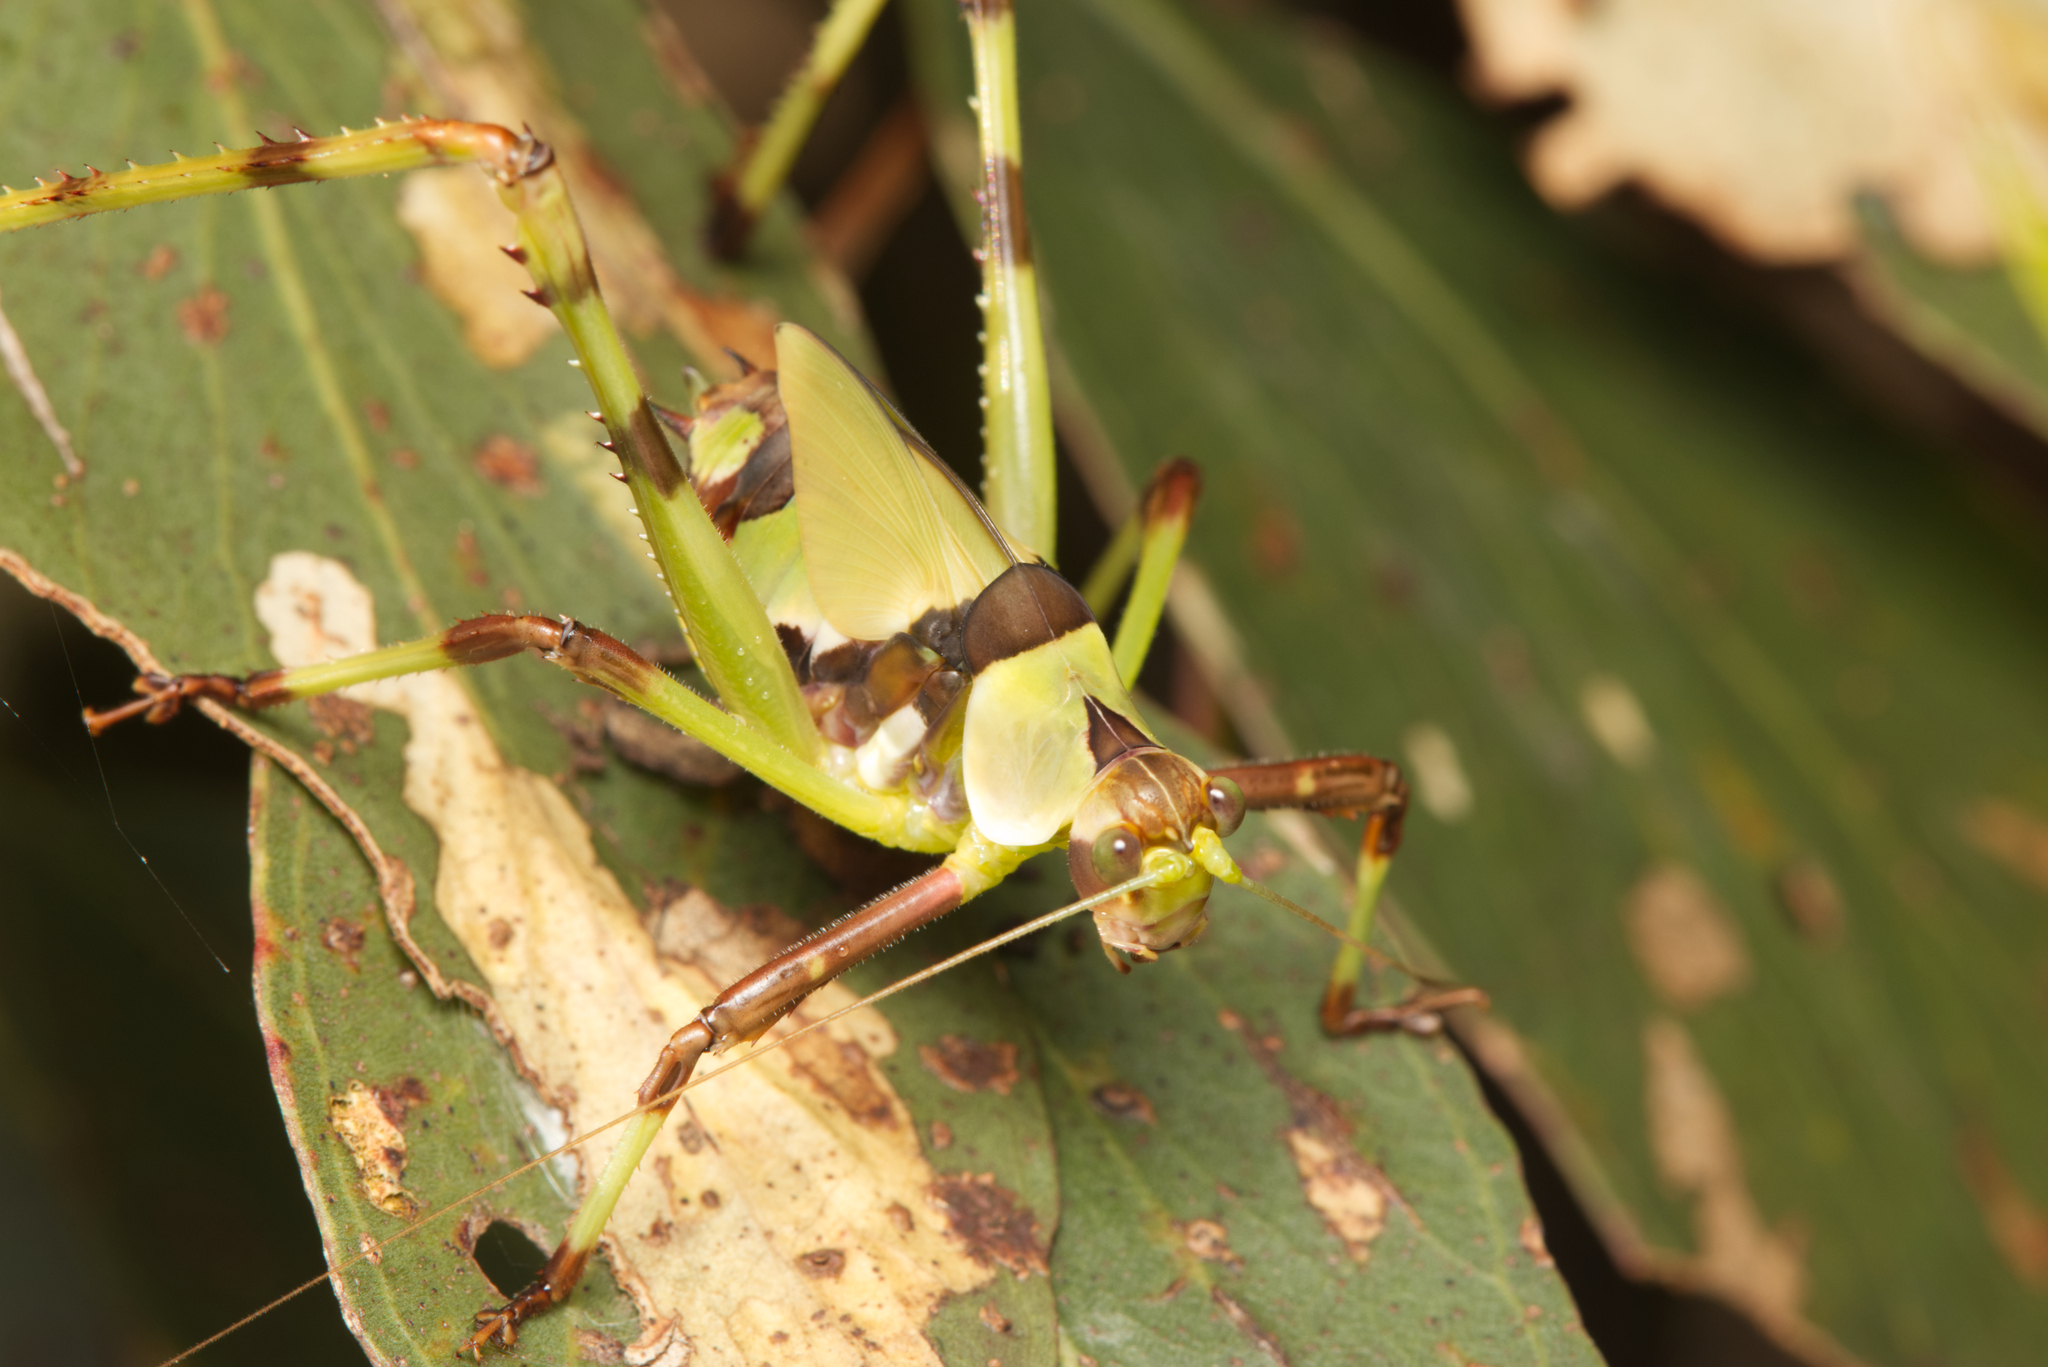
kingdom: Animalia
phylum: Arthropoda
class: Insecta
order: Orthoptera
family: Tettigoniidae
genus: Ephippitytha
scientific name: Ephippitytha trigintiduoguttata
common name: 32-spotted katydid
